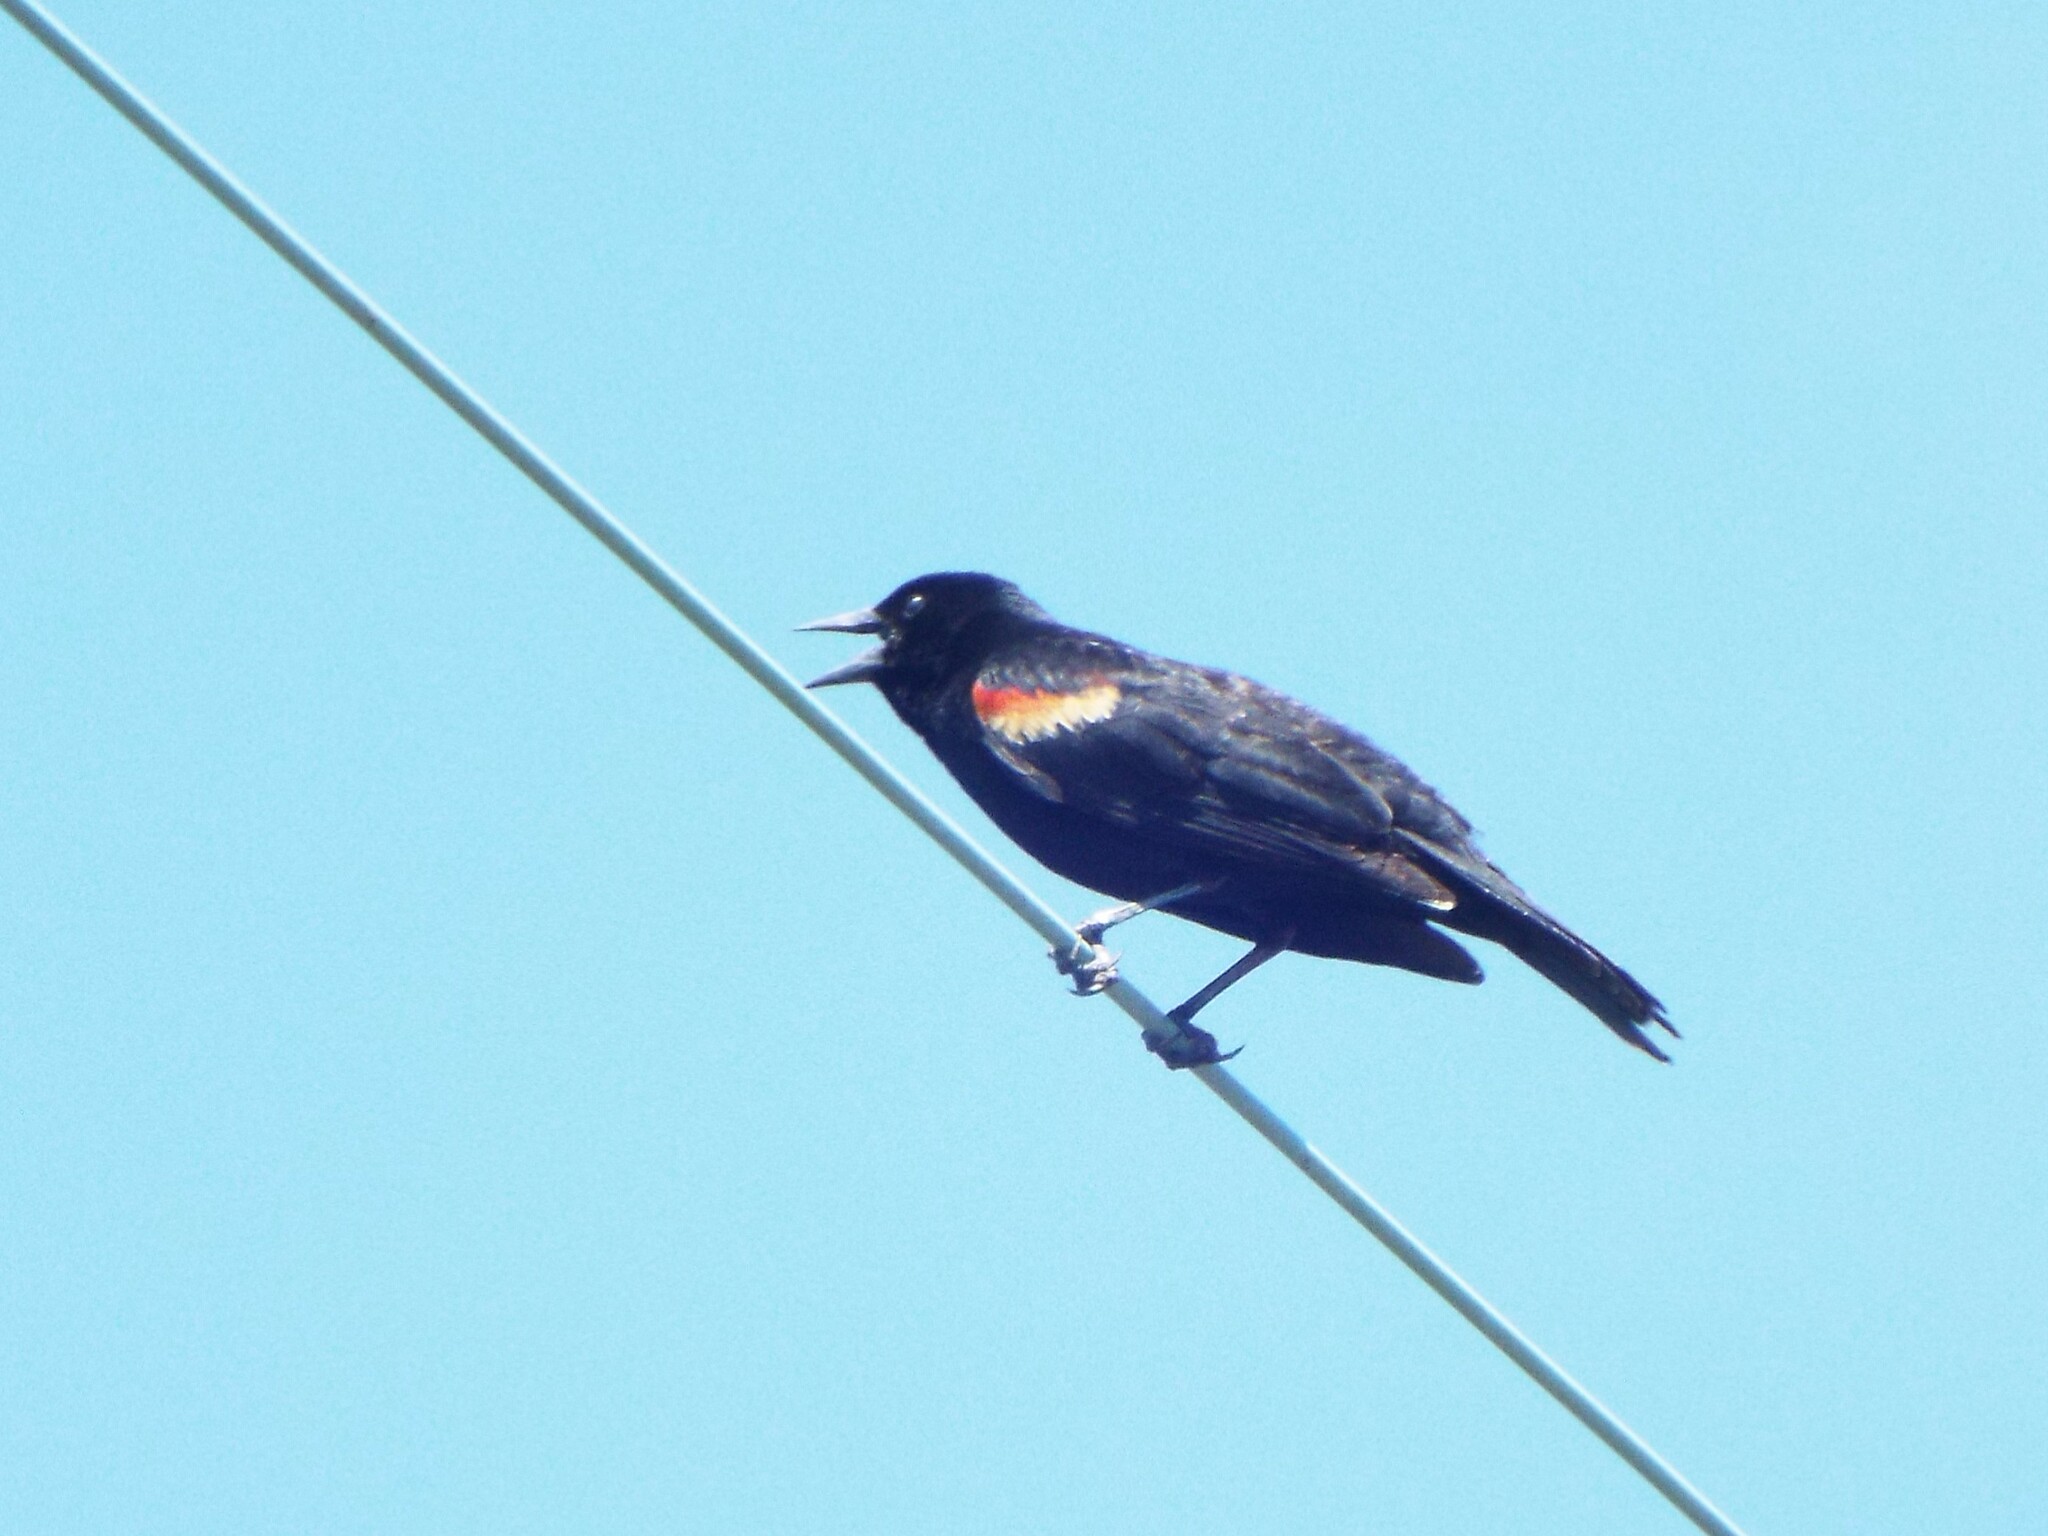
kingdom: Animalia
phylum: Chordata
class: Aves
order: Passeriformes
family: Icteridae
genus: Agelaius
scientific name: Agelaius phoeniceus
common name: Red-winged blackbird
